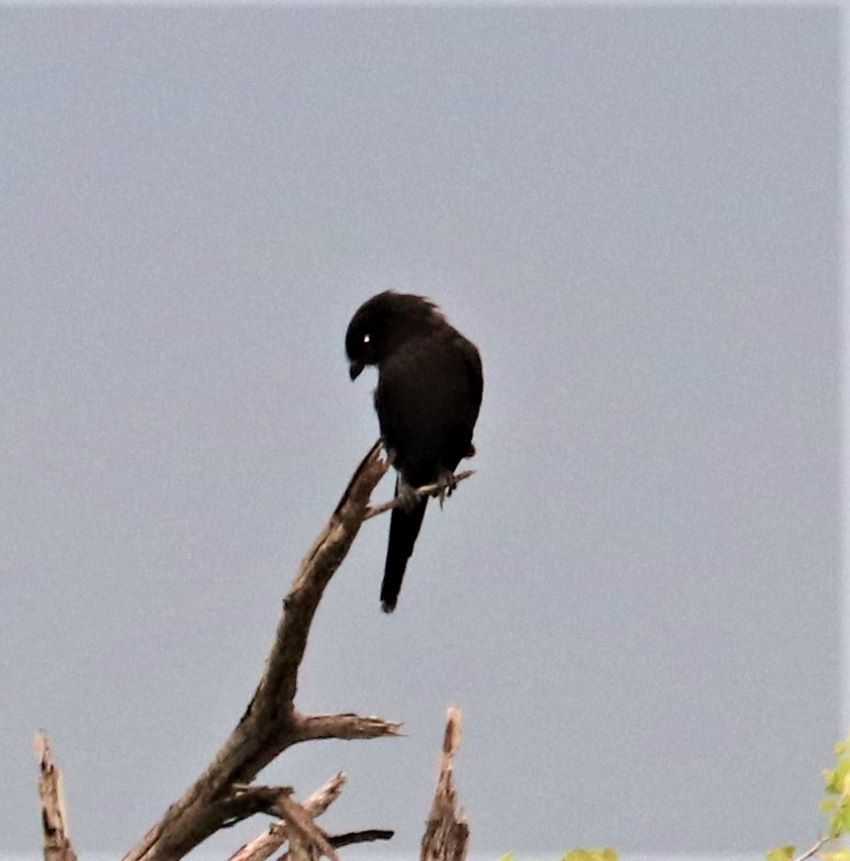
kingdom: Animalia
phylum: Chordata
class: Aves
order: Passeriformes
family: Laniidae
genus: Urolestes
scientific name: Urolestes melanoleucus
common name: Magpie shrike
